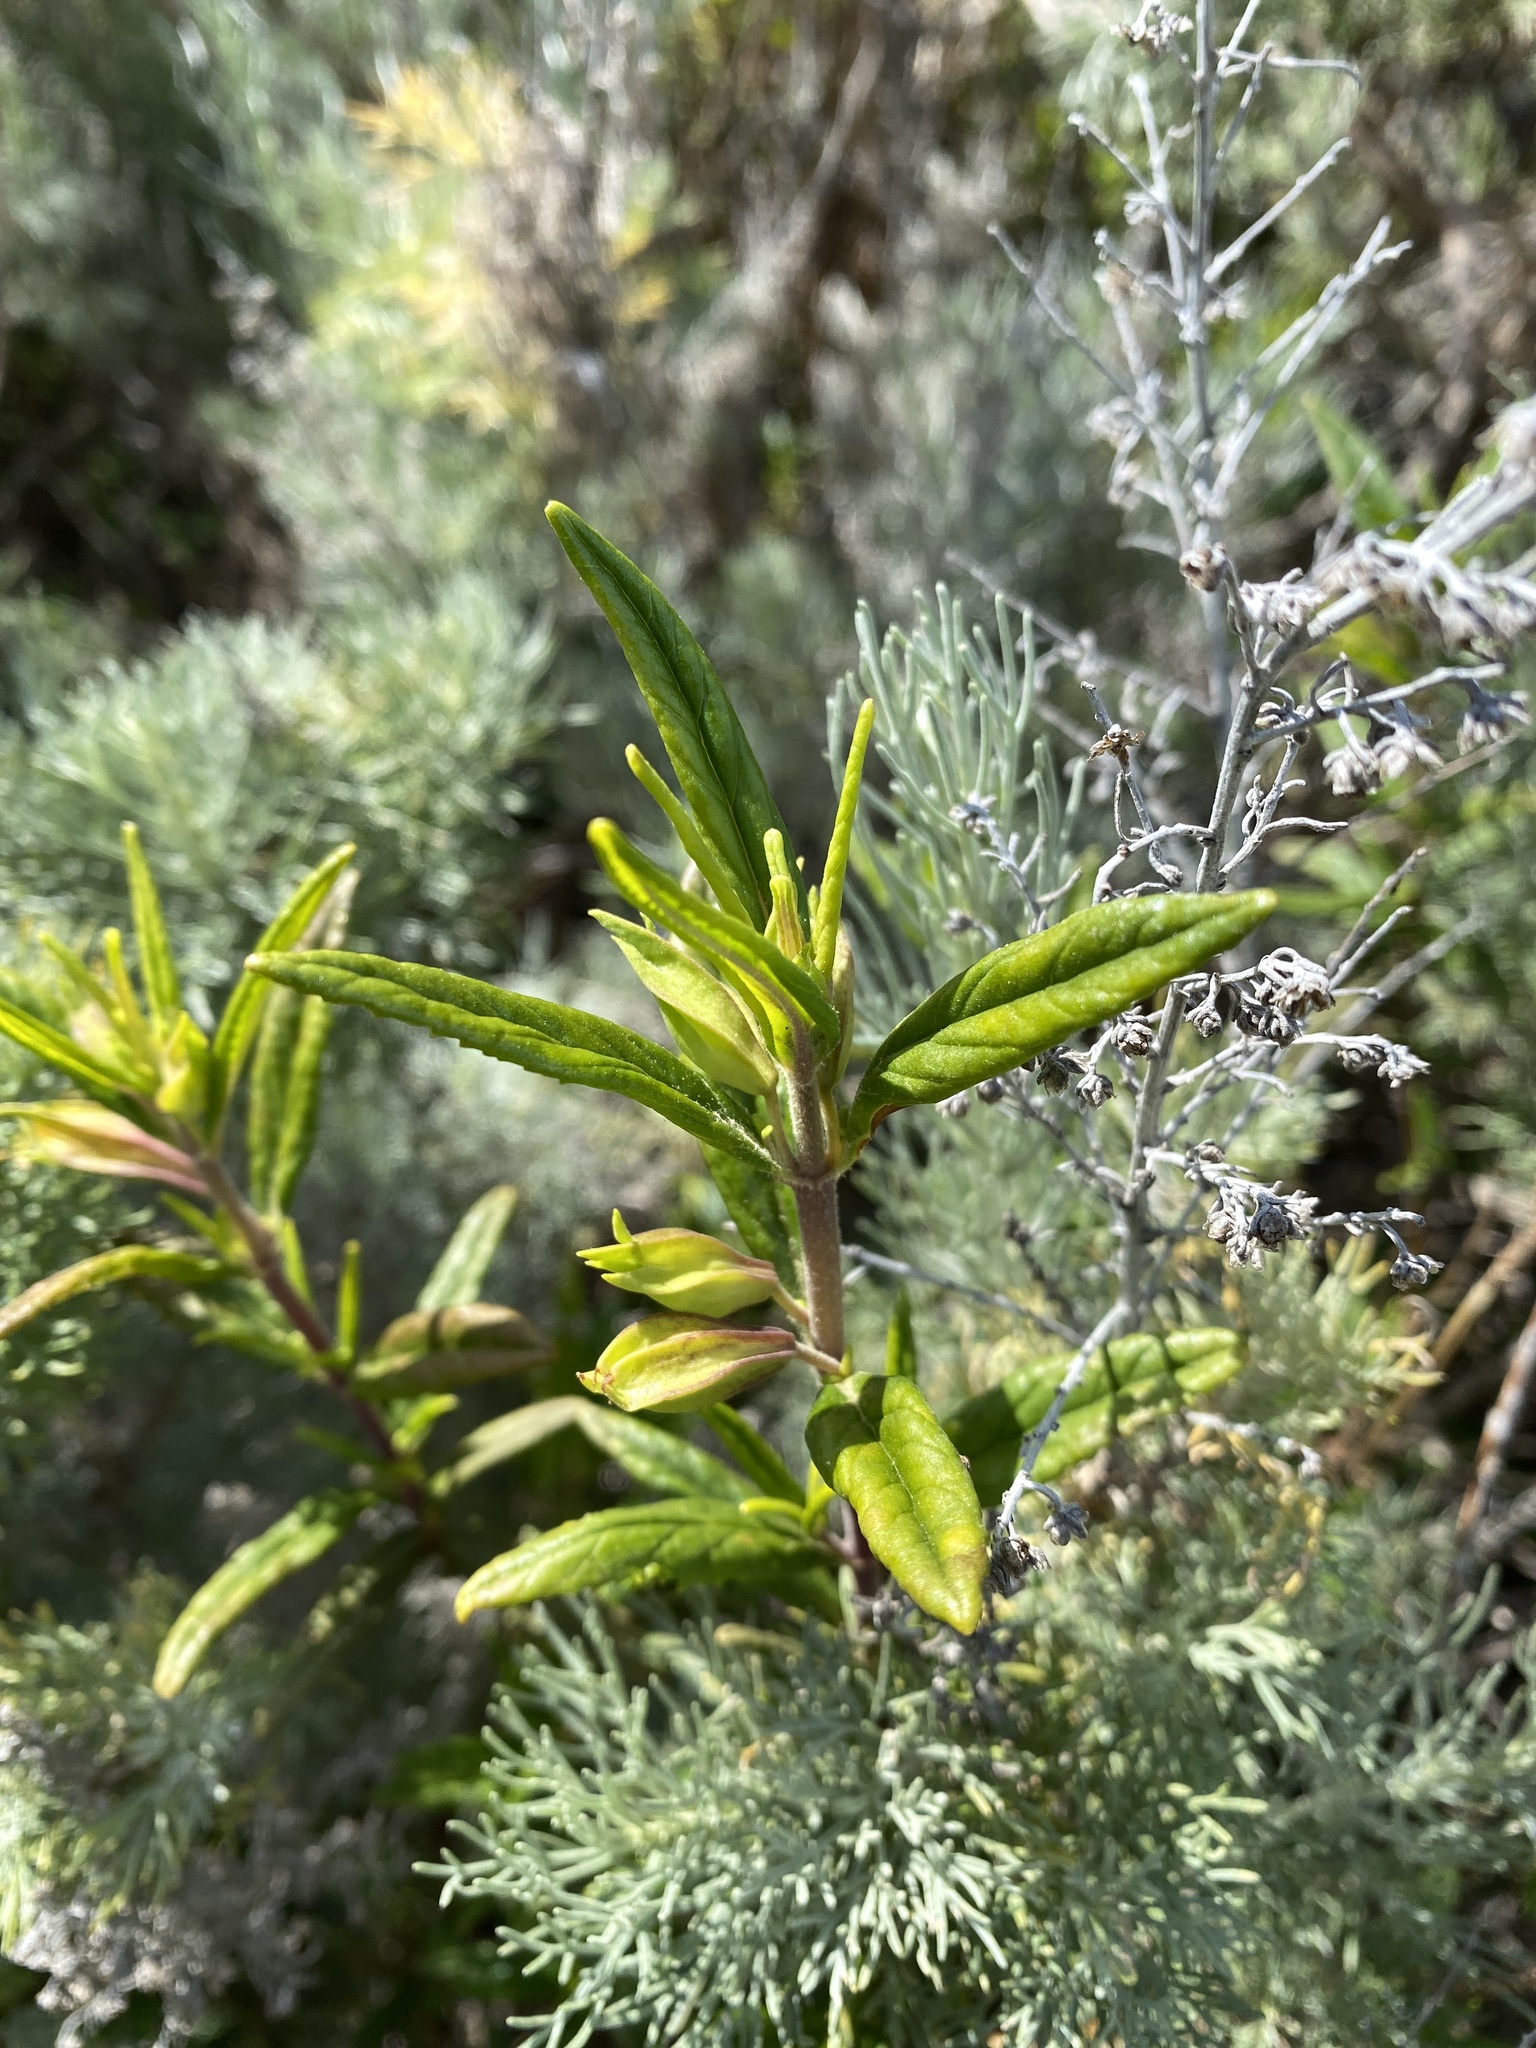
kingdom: Plantae
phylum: Tracheophyta
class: Magnoliopsida
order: Lamiales
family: Phrymaceae
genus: Diplacus
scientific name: Diplacus aurantiacus
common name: Bush monkey-flower
